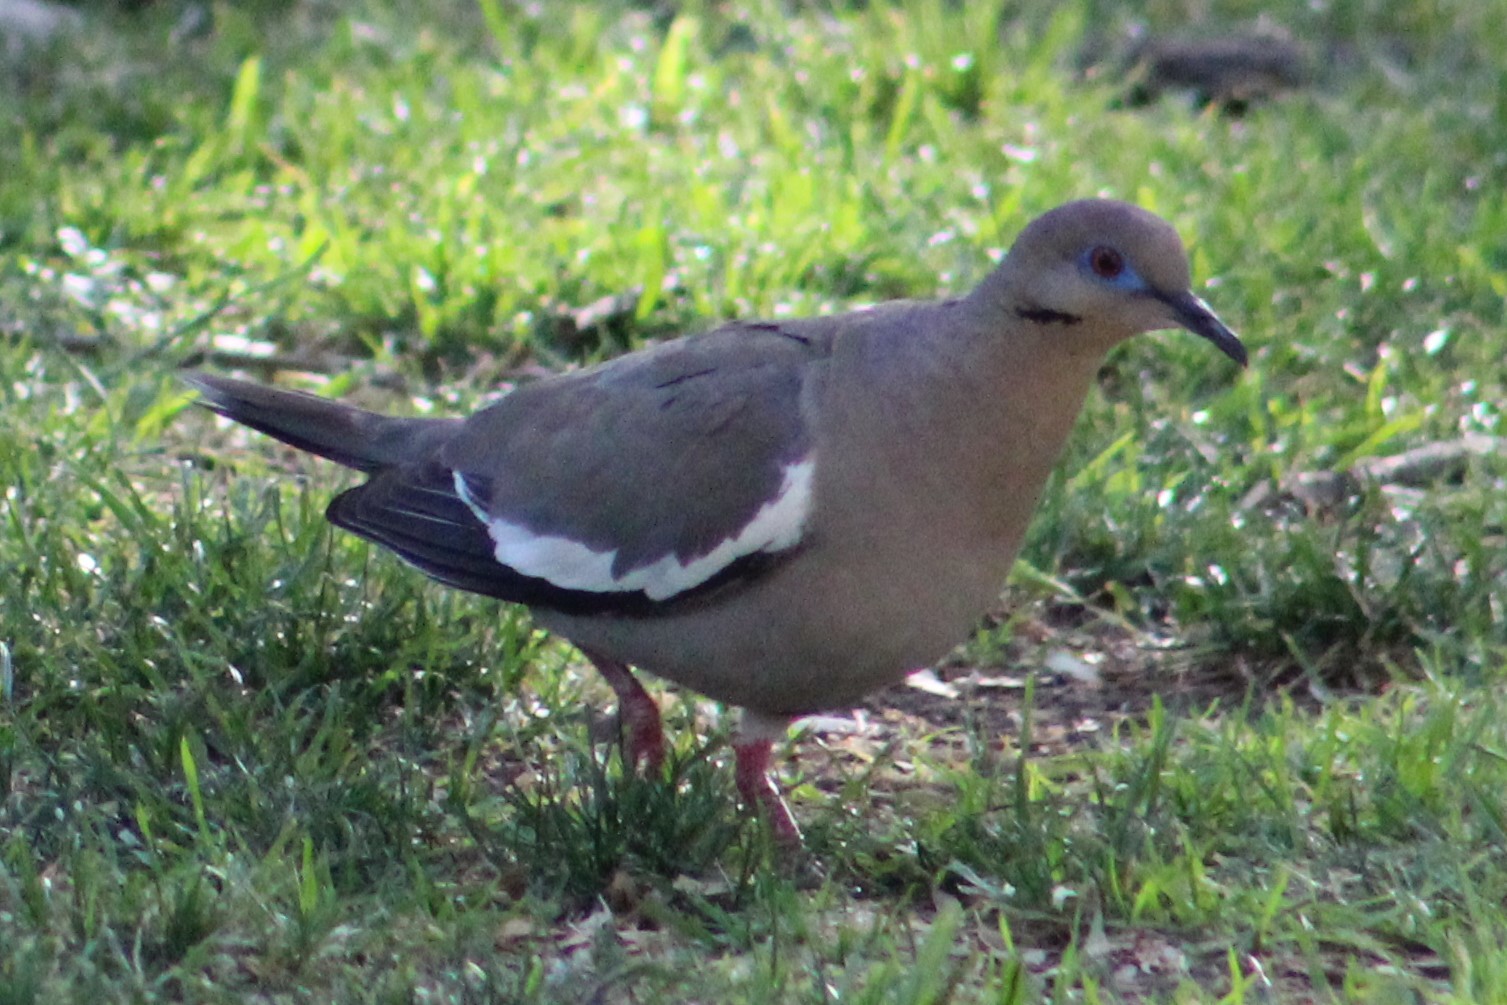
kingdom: Animalia
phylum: Chordata
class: Aves
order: Columbiformes
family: Columbidae
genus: Zenaida
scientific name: Zenaida asiatica
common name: White-winged dove
